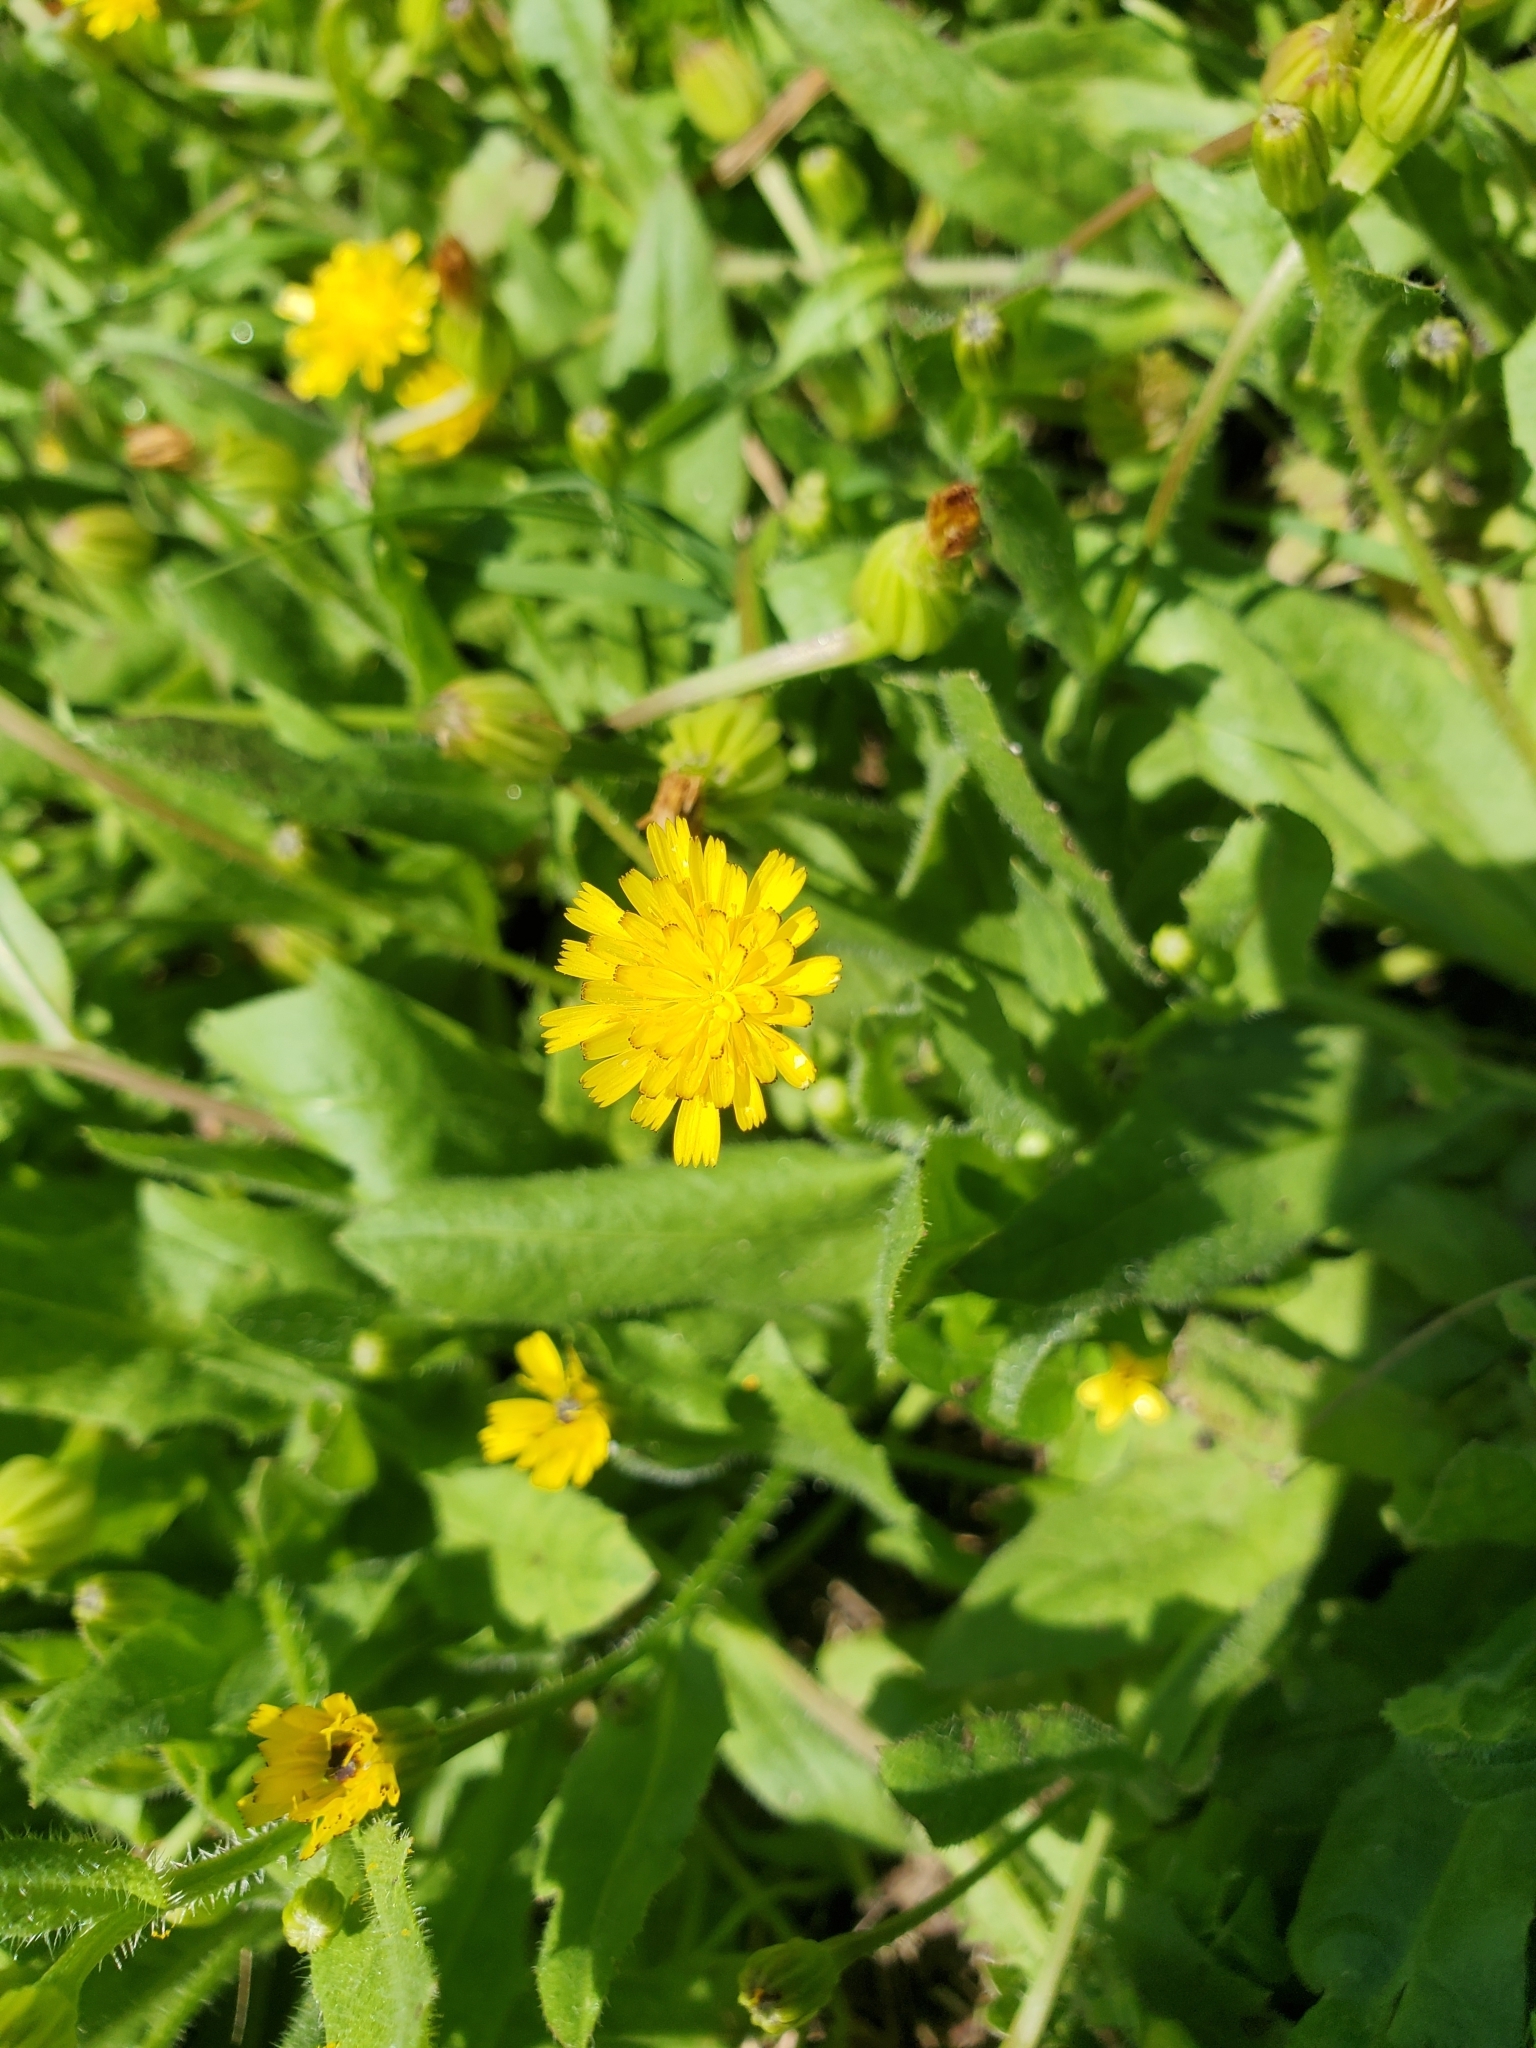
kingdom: Plantae
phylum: Tracheophyta
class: Magnoliopsida
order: Asterales
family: Asteraceae
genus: Hedypnois
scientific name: Hedypnois rhagadioloides
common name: Cretan weed
